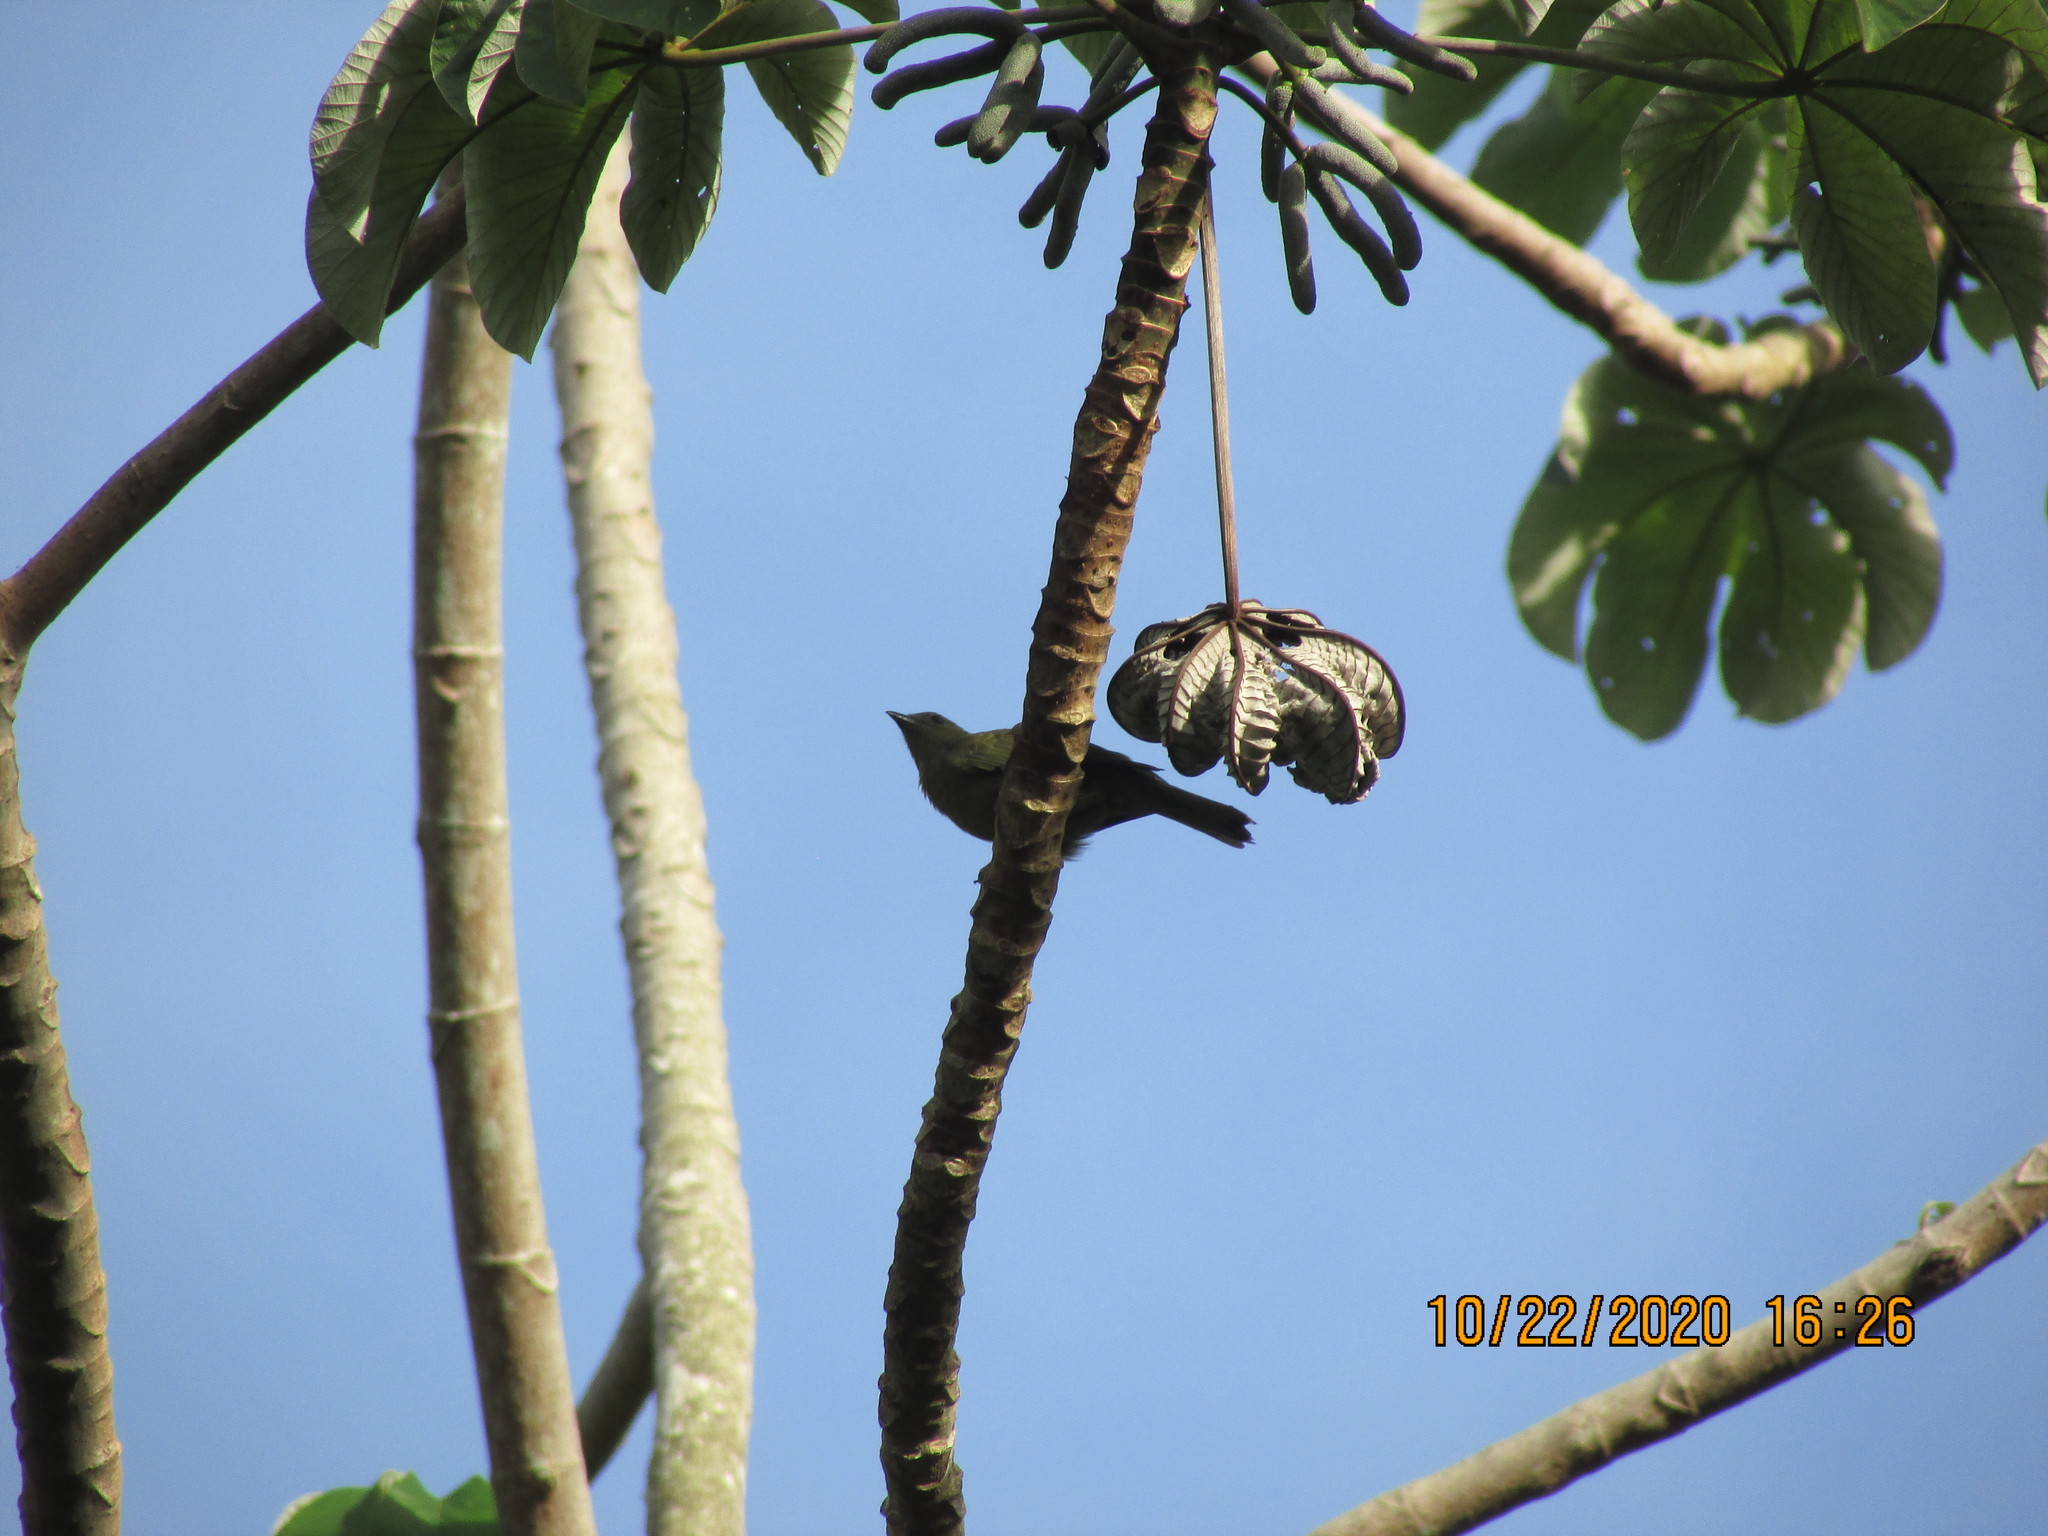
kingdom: Animalia
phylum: Chordata
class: Aves
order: Passeriformes
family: Thraupidae
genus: Thraupis
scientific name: Thraupis palmarum
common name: Palm tanager
